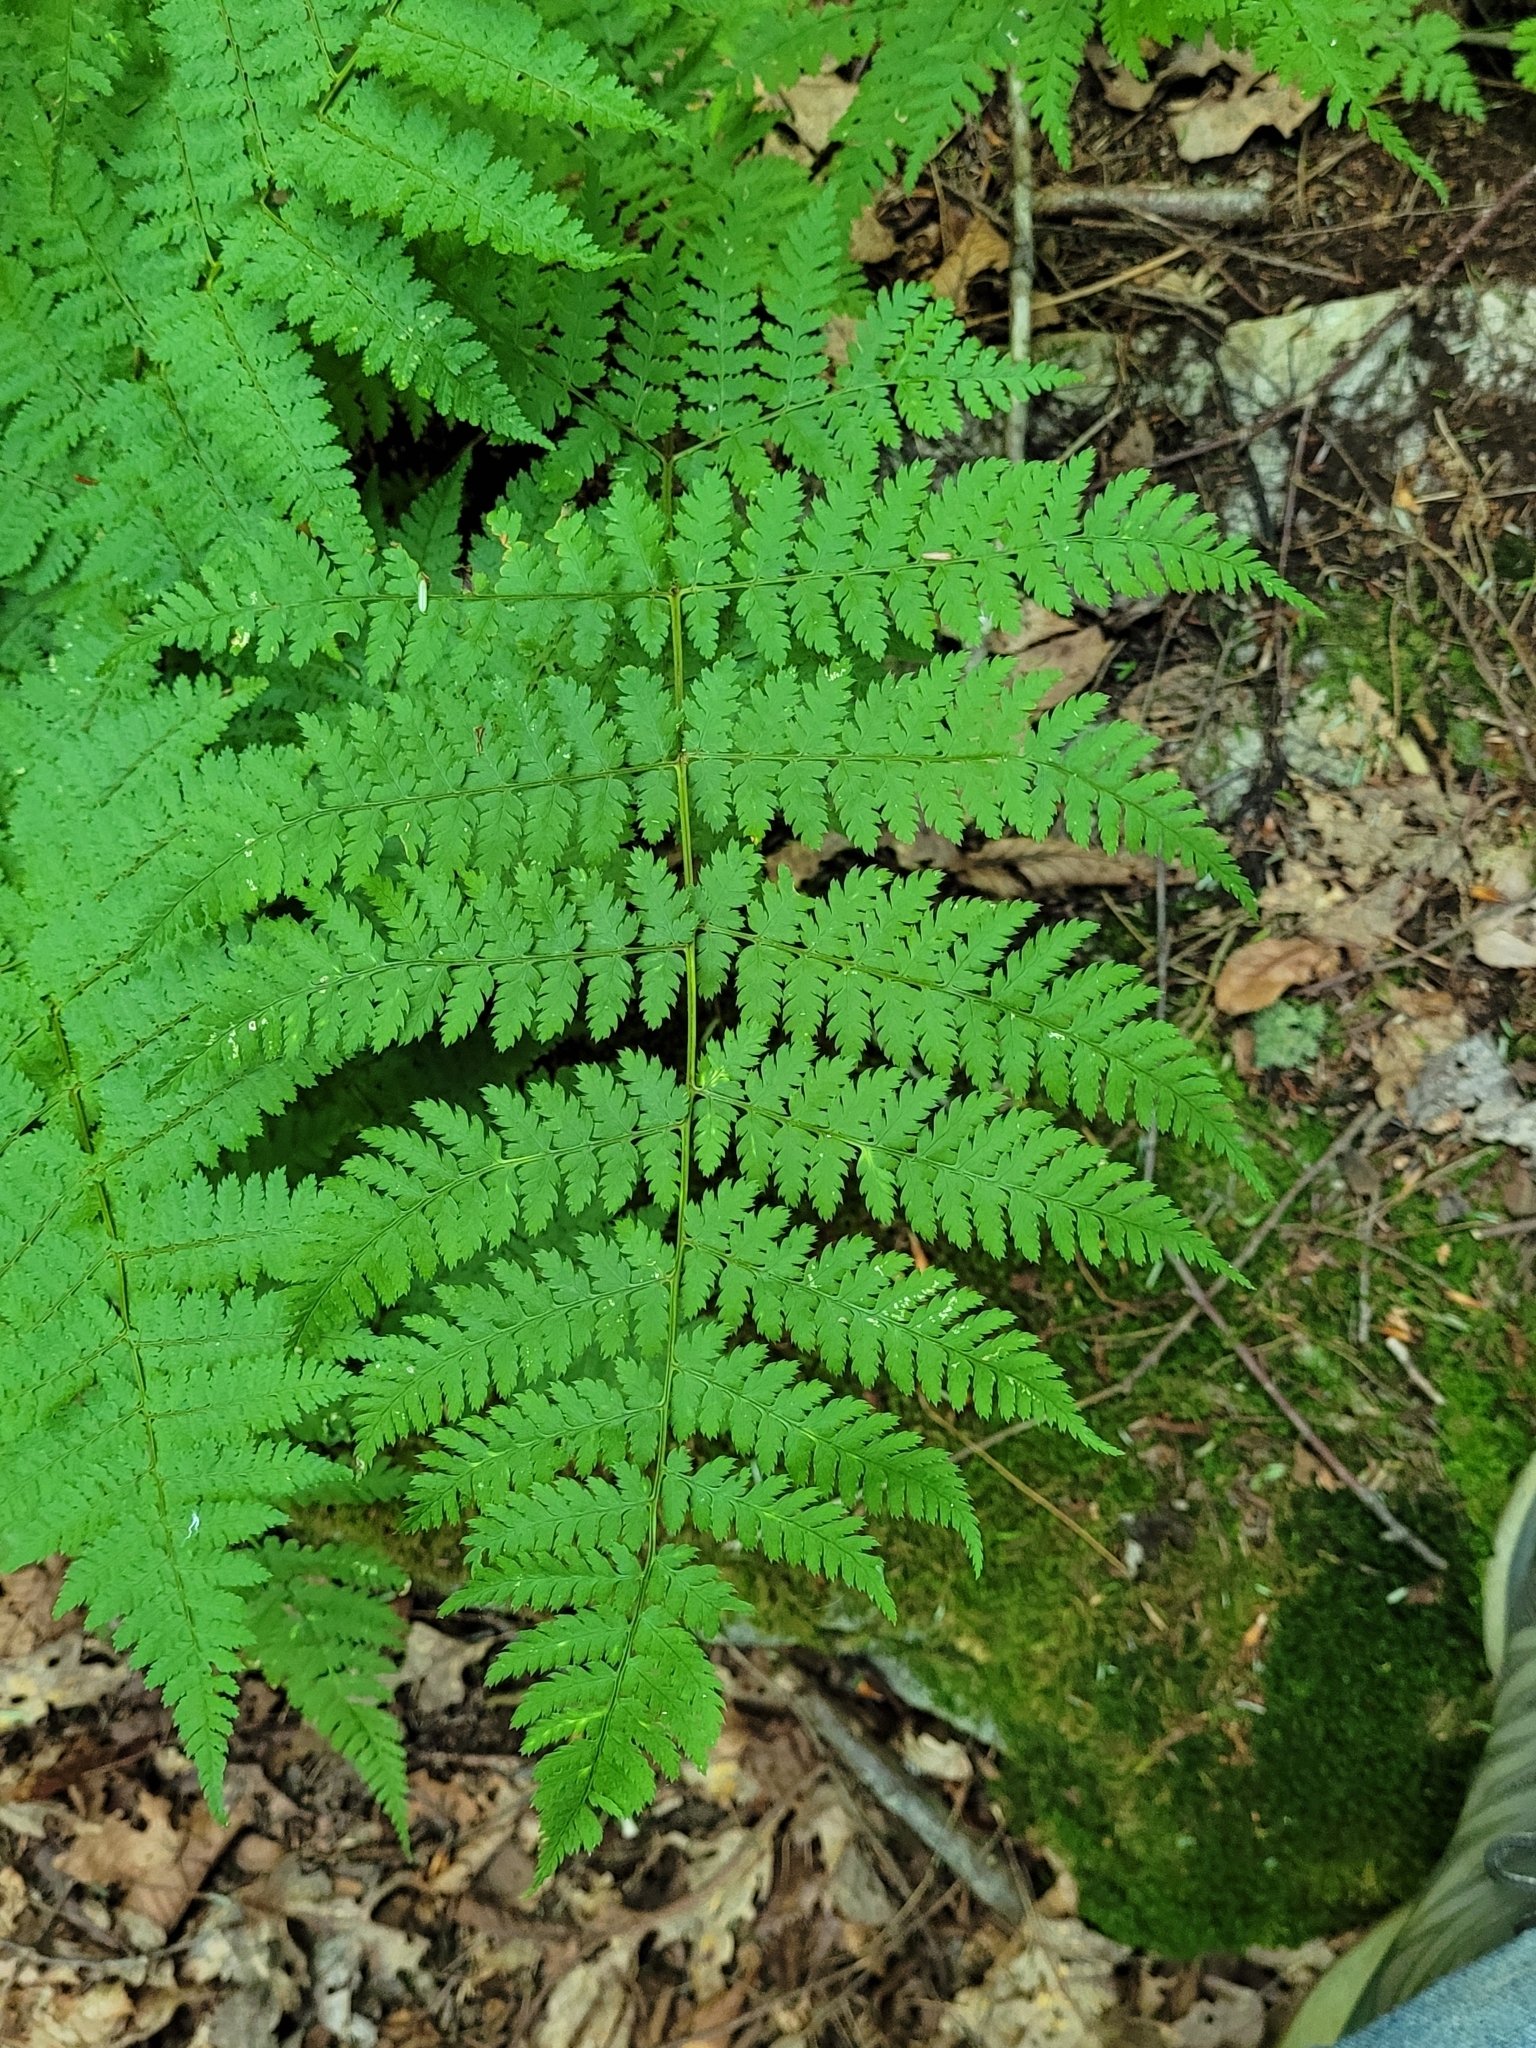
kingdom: Plantae
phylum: Tracheophyta
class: Polypodiopsida
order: Polypodiales
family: Dryopteridaceae
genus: Dryopteris
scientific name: Dryopteris intermedia
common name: Evergreen wood fern
